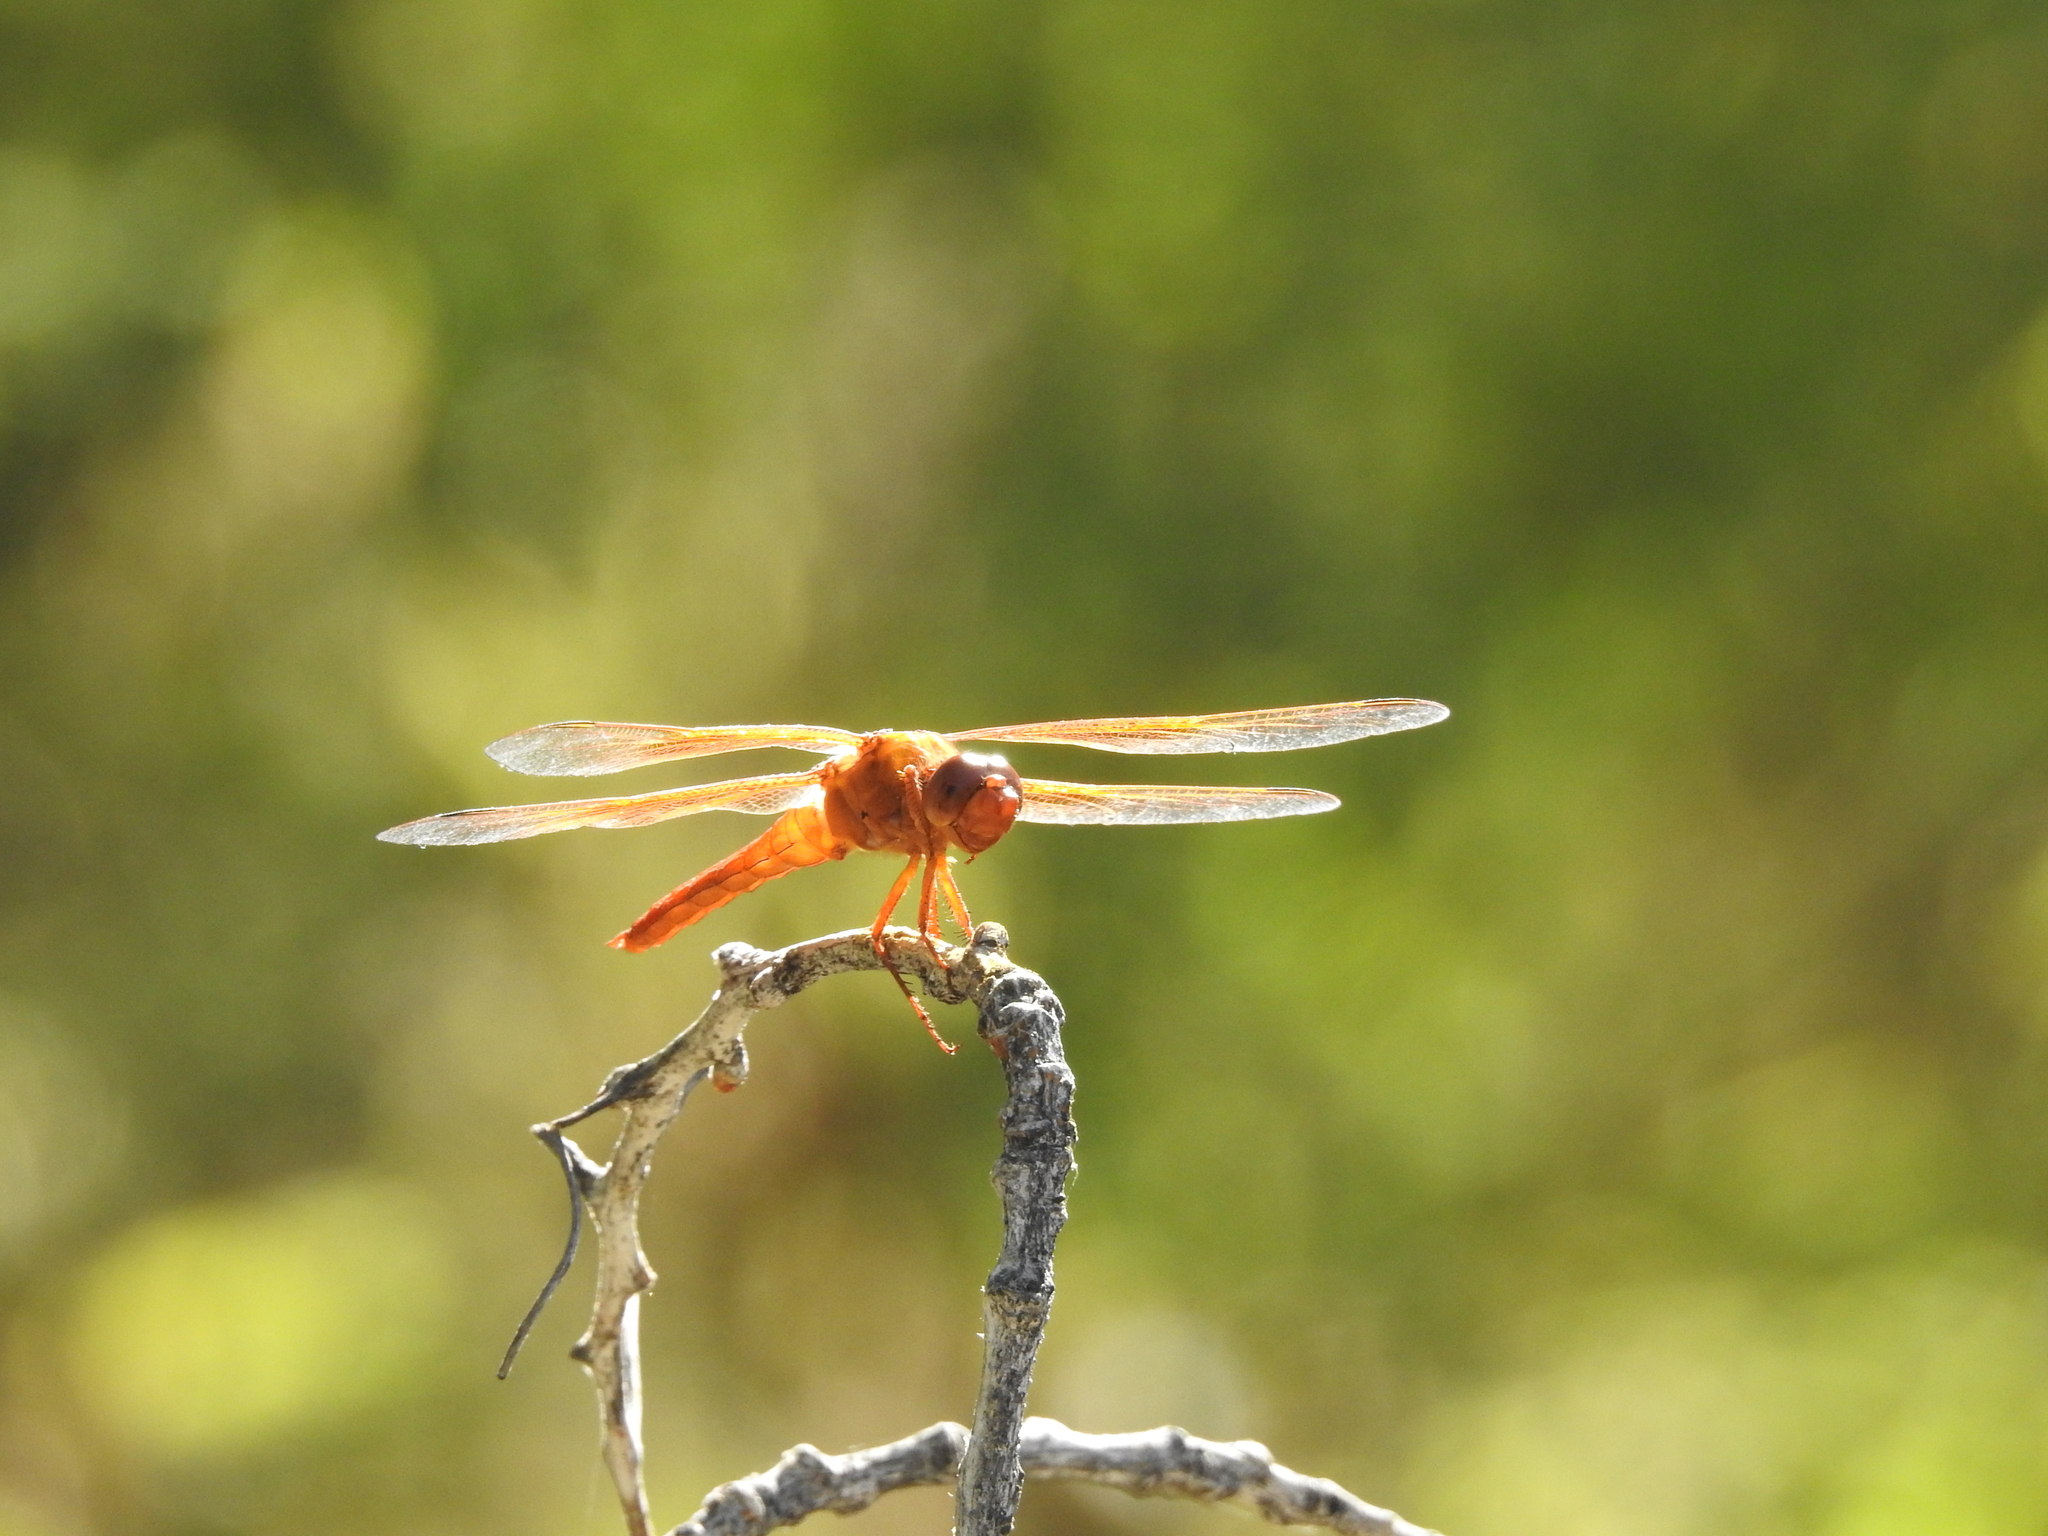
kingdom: Animalia
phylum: Arthropoda
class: Insecta
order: Odonata
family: Libellulidae
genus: Libellula
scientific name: Libellula saturata
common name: Flame skimmer
